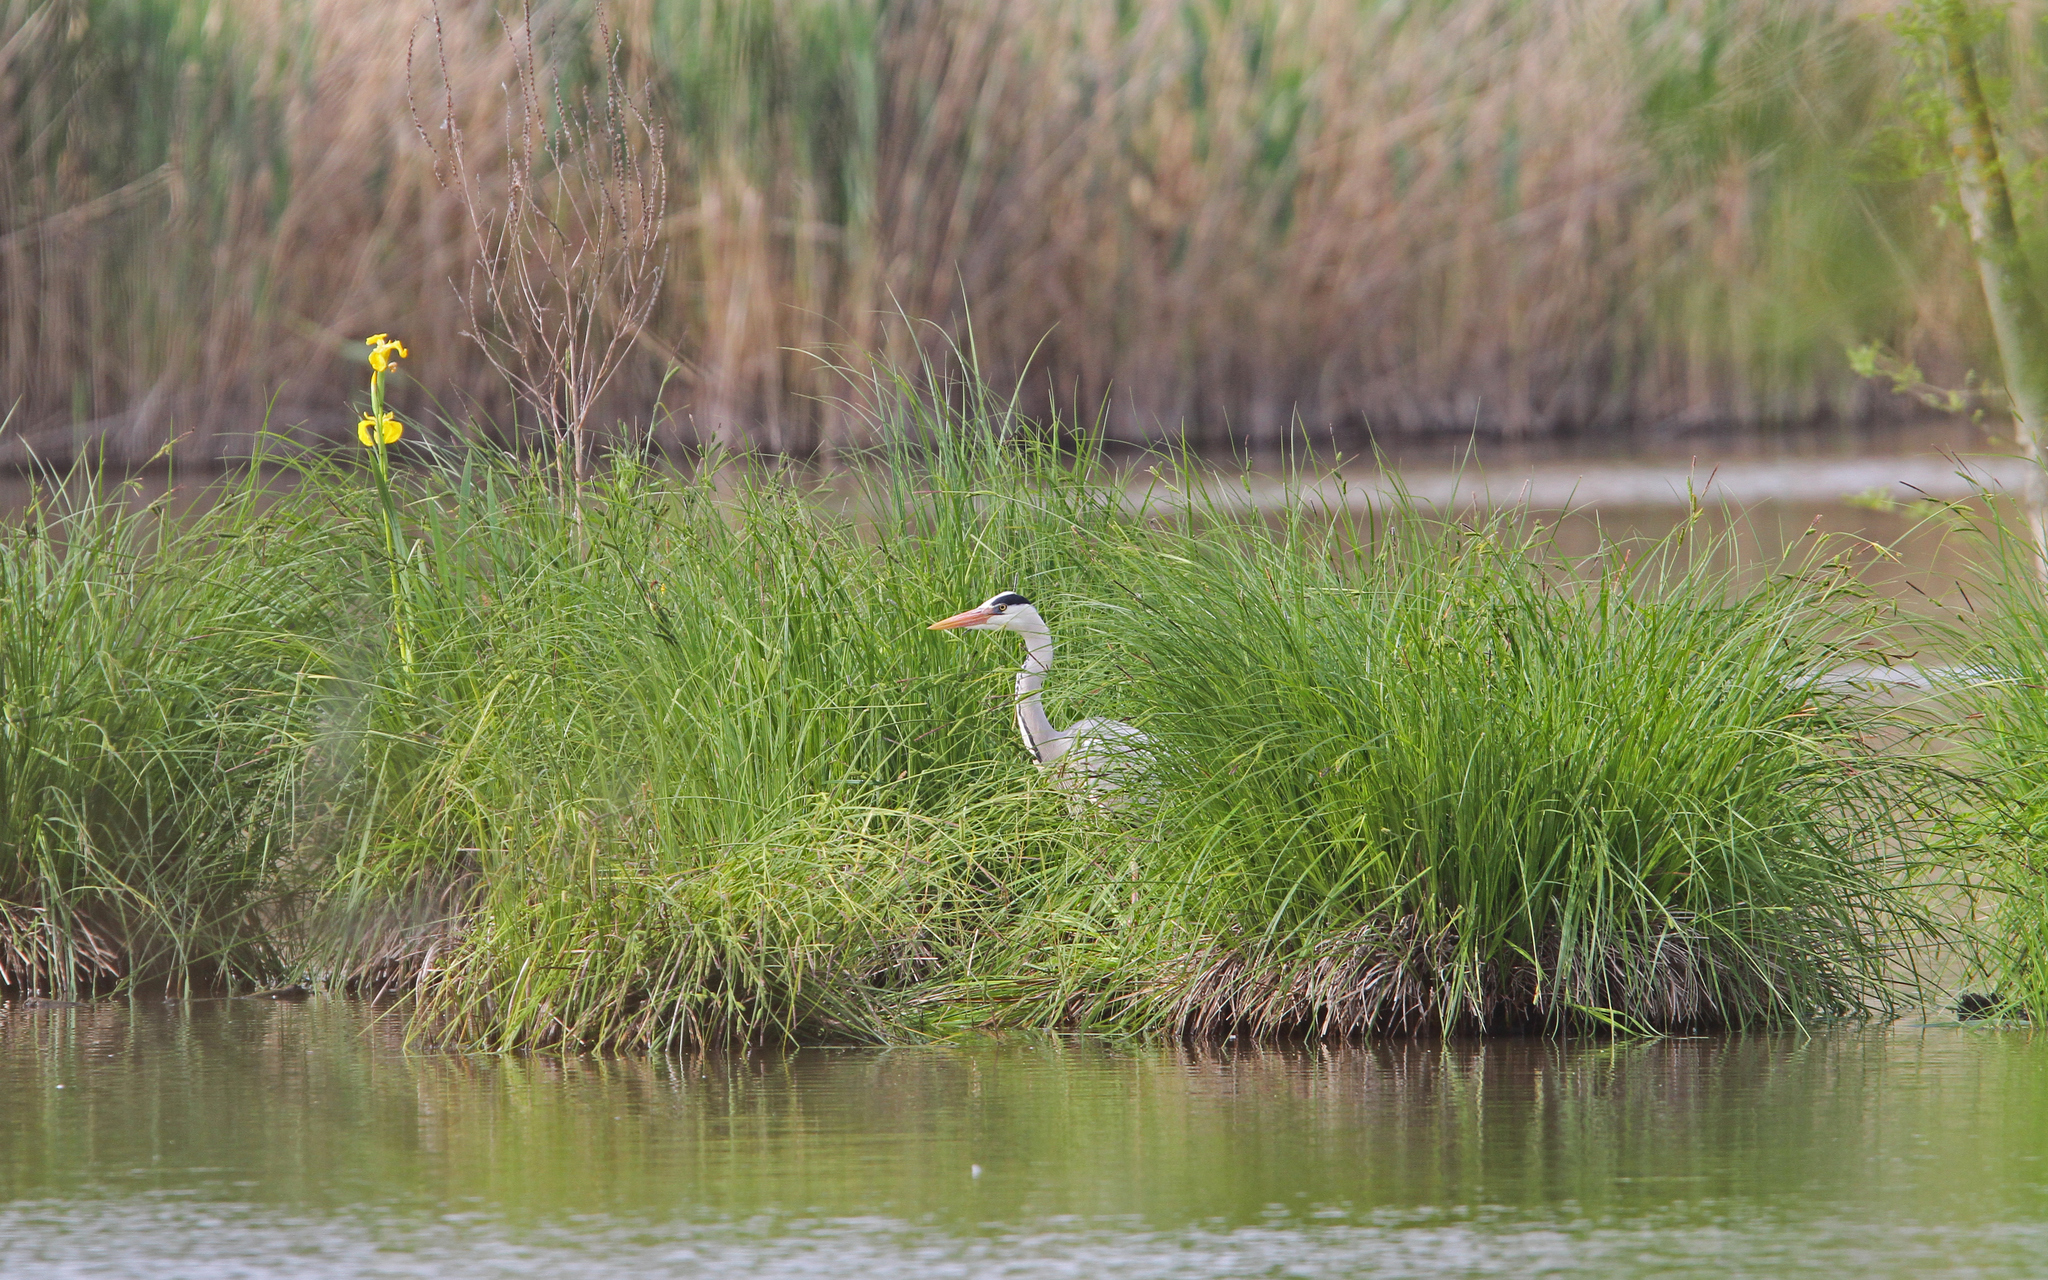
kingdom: Animalia
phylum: Chordata
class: Aves
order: Pelecaniformes
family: Ardeidae
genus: Ardea
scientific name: Ardea cinerea
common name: Grey heron
